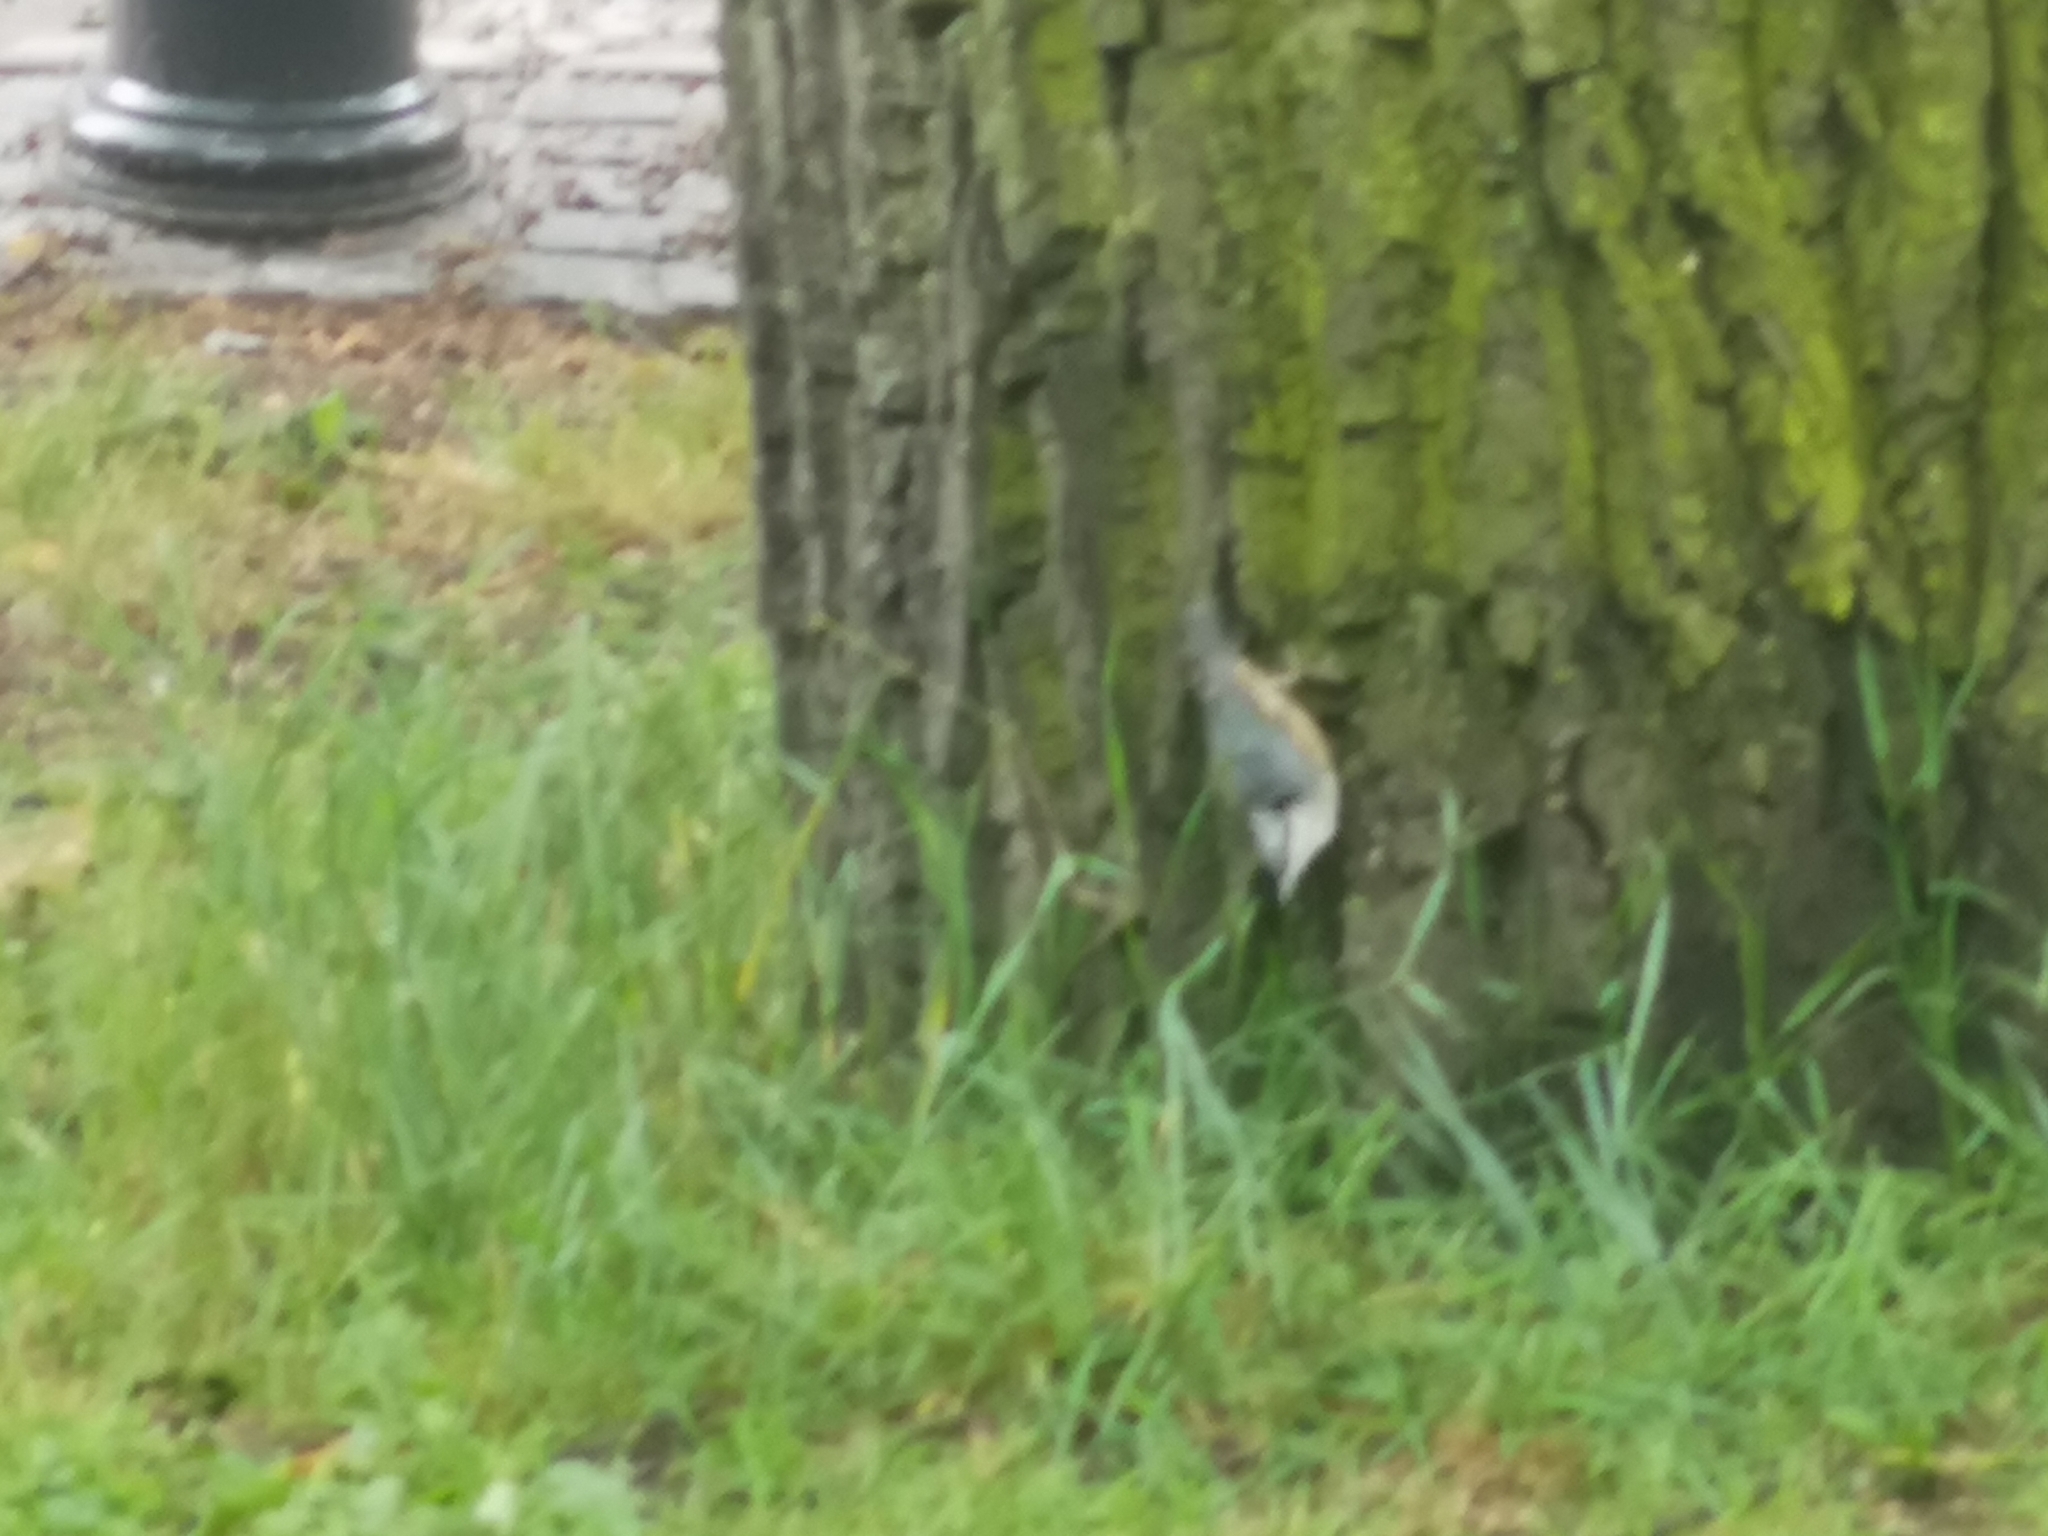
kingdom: Animalia
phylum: Chordata
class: Aves
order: Passeriformes
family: Sittidae
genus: Sitta
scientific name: Sitta europaea
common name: Eurasian nuthatch
